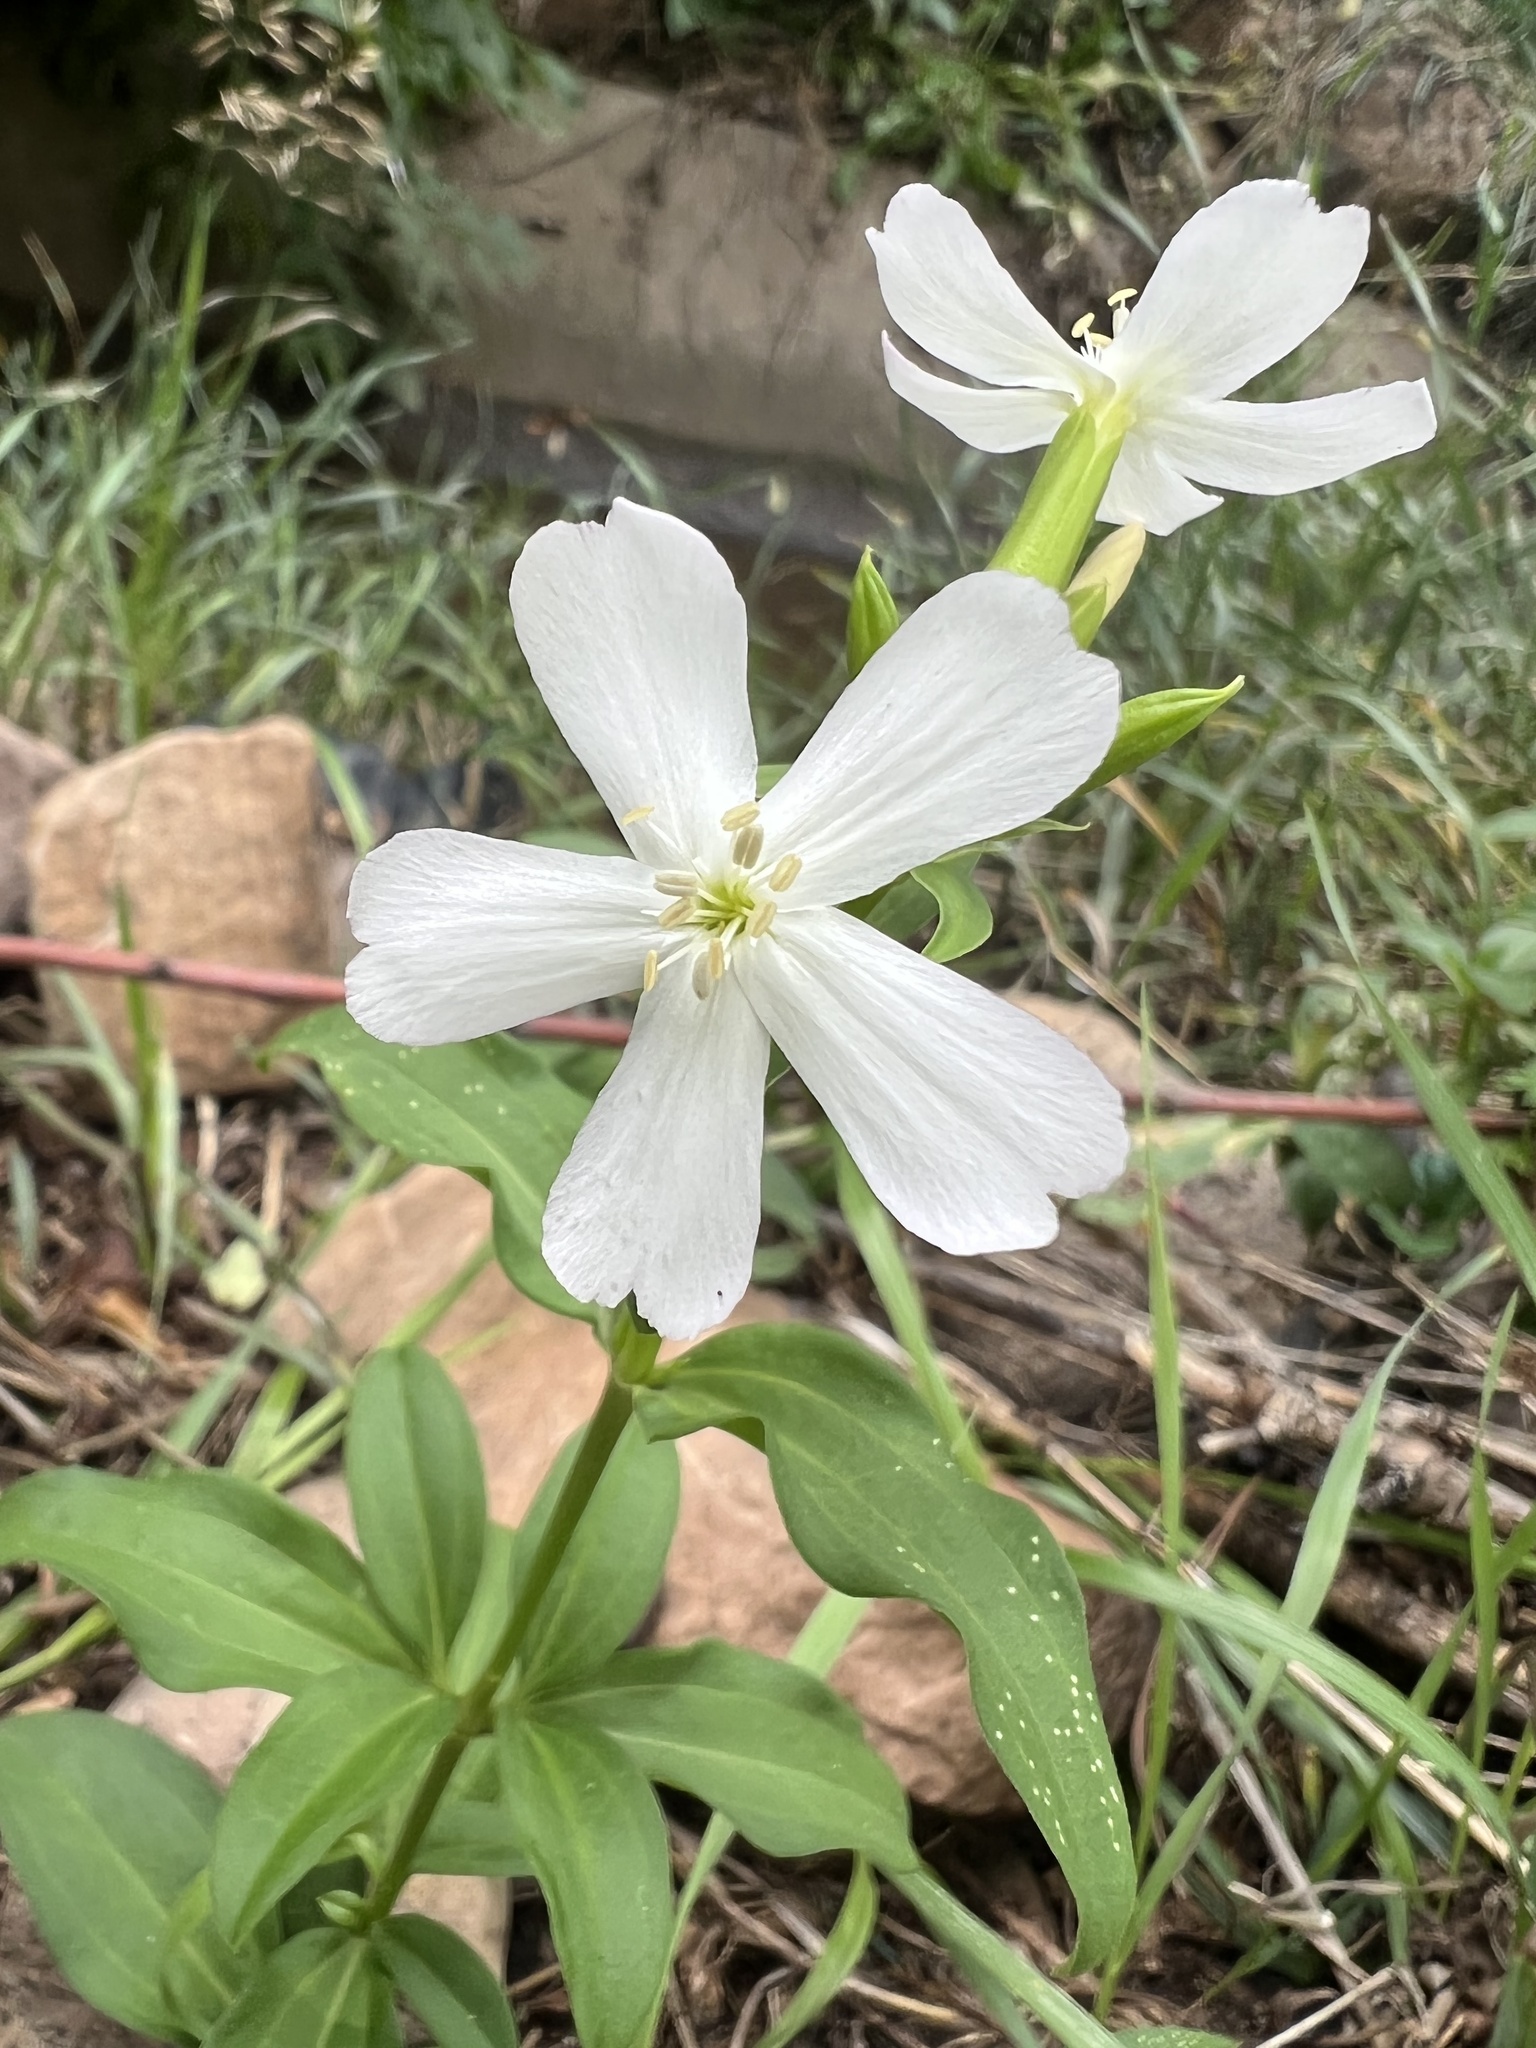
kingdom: Plantae
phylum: Tracheophyta
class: Magnoliopsida
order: Caryophyllales
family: Caryophyllaceae
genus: Saponaria
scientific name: Saponaria officinalis
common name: Soapwort
